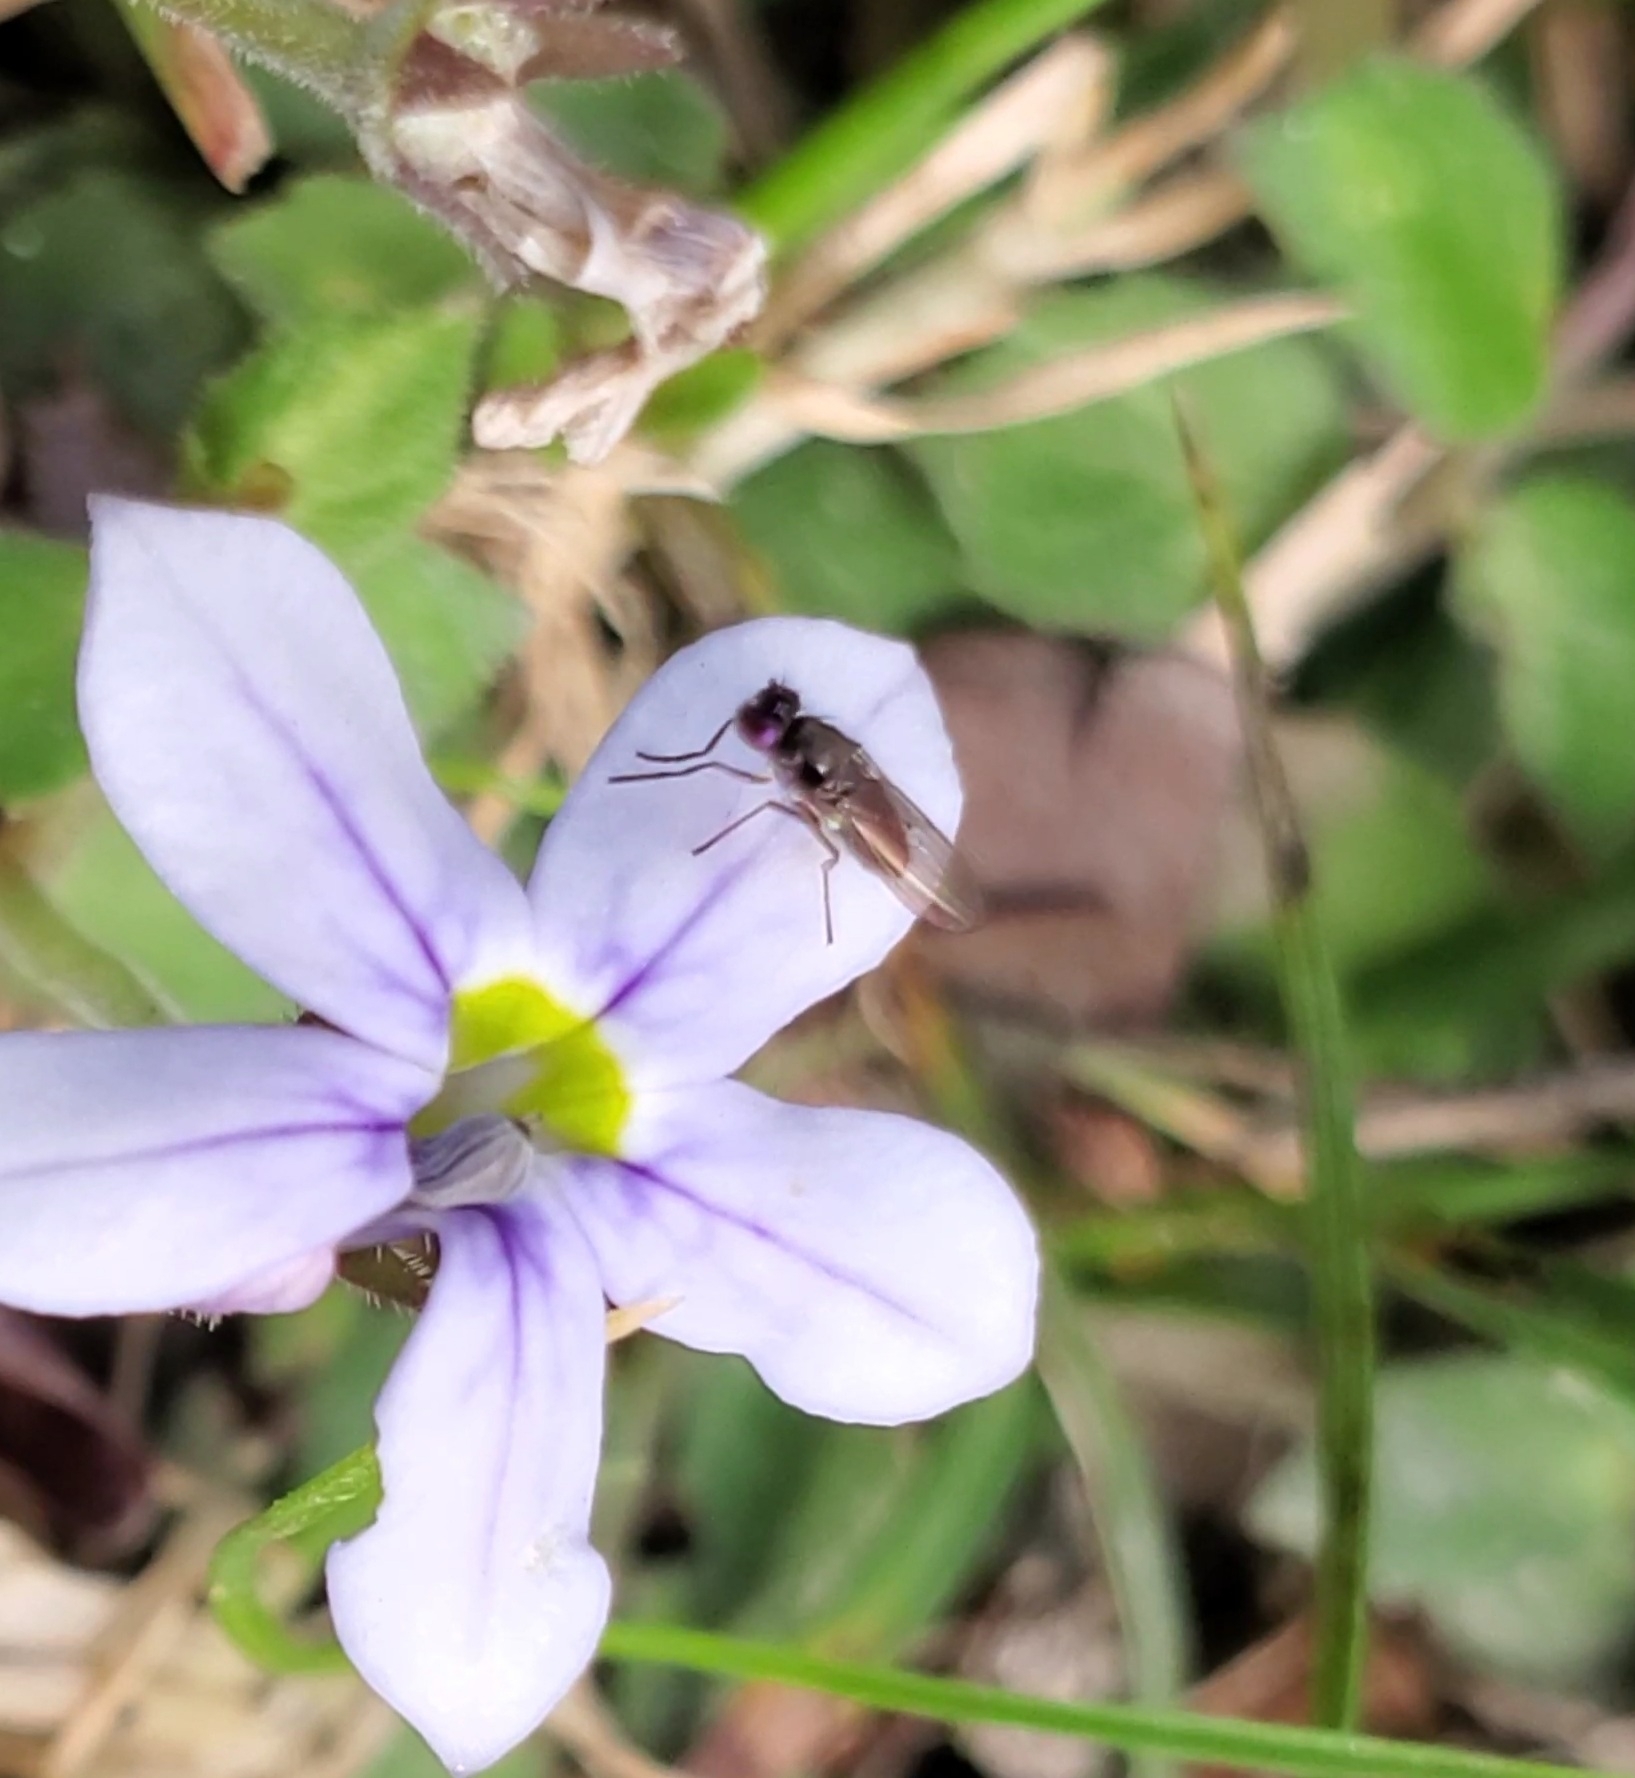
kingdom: Animalia
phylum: Arthropoda
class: Insecta
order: Diptera
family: Ephydridae
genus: Hydrellia
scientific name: Hydrellia tritici
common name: Shore fly
